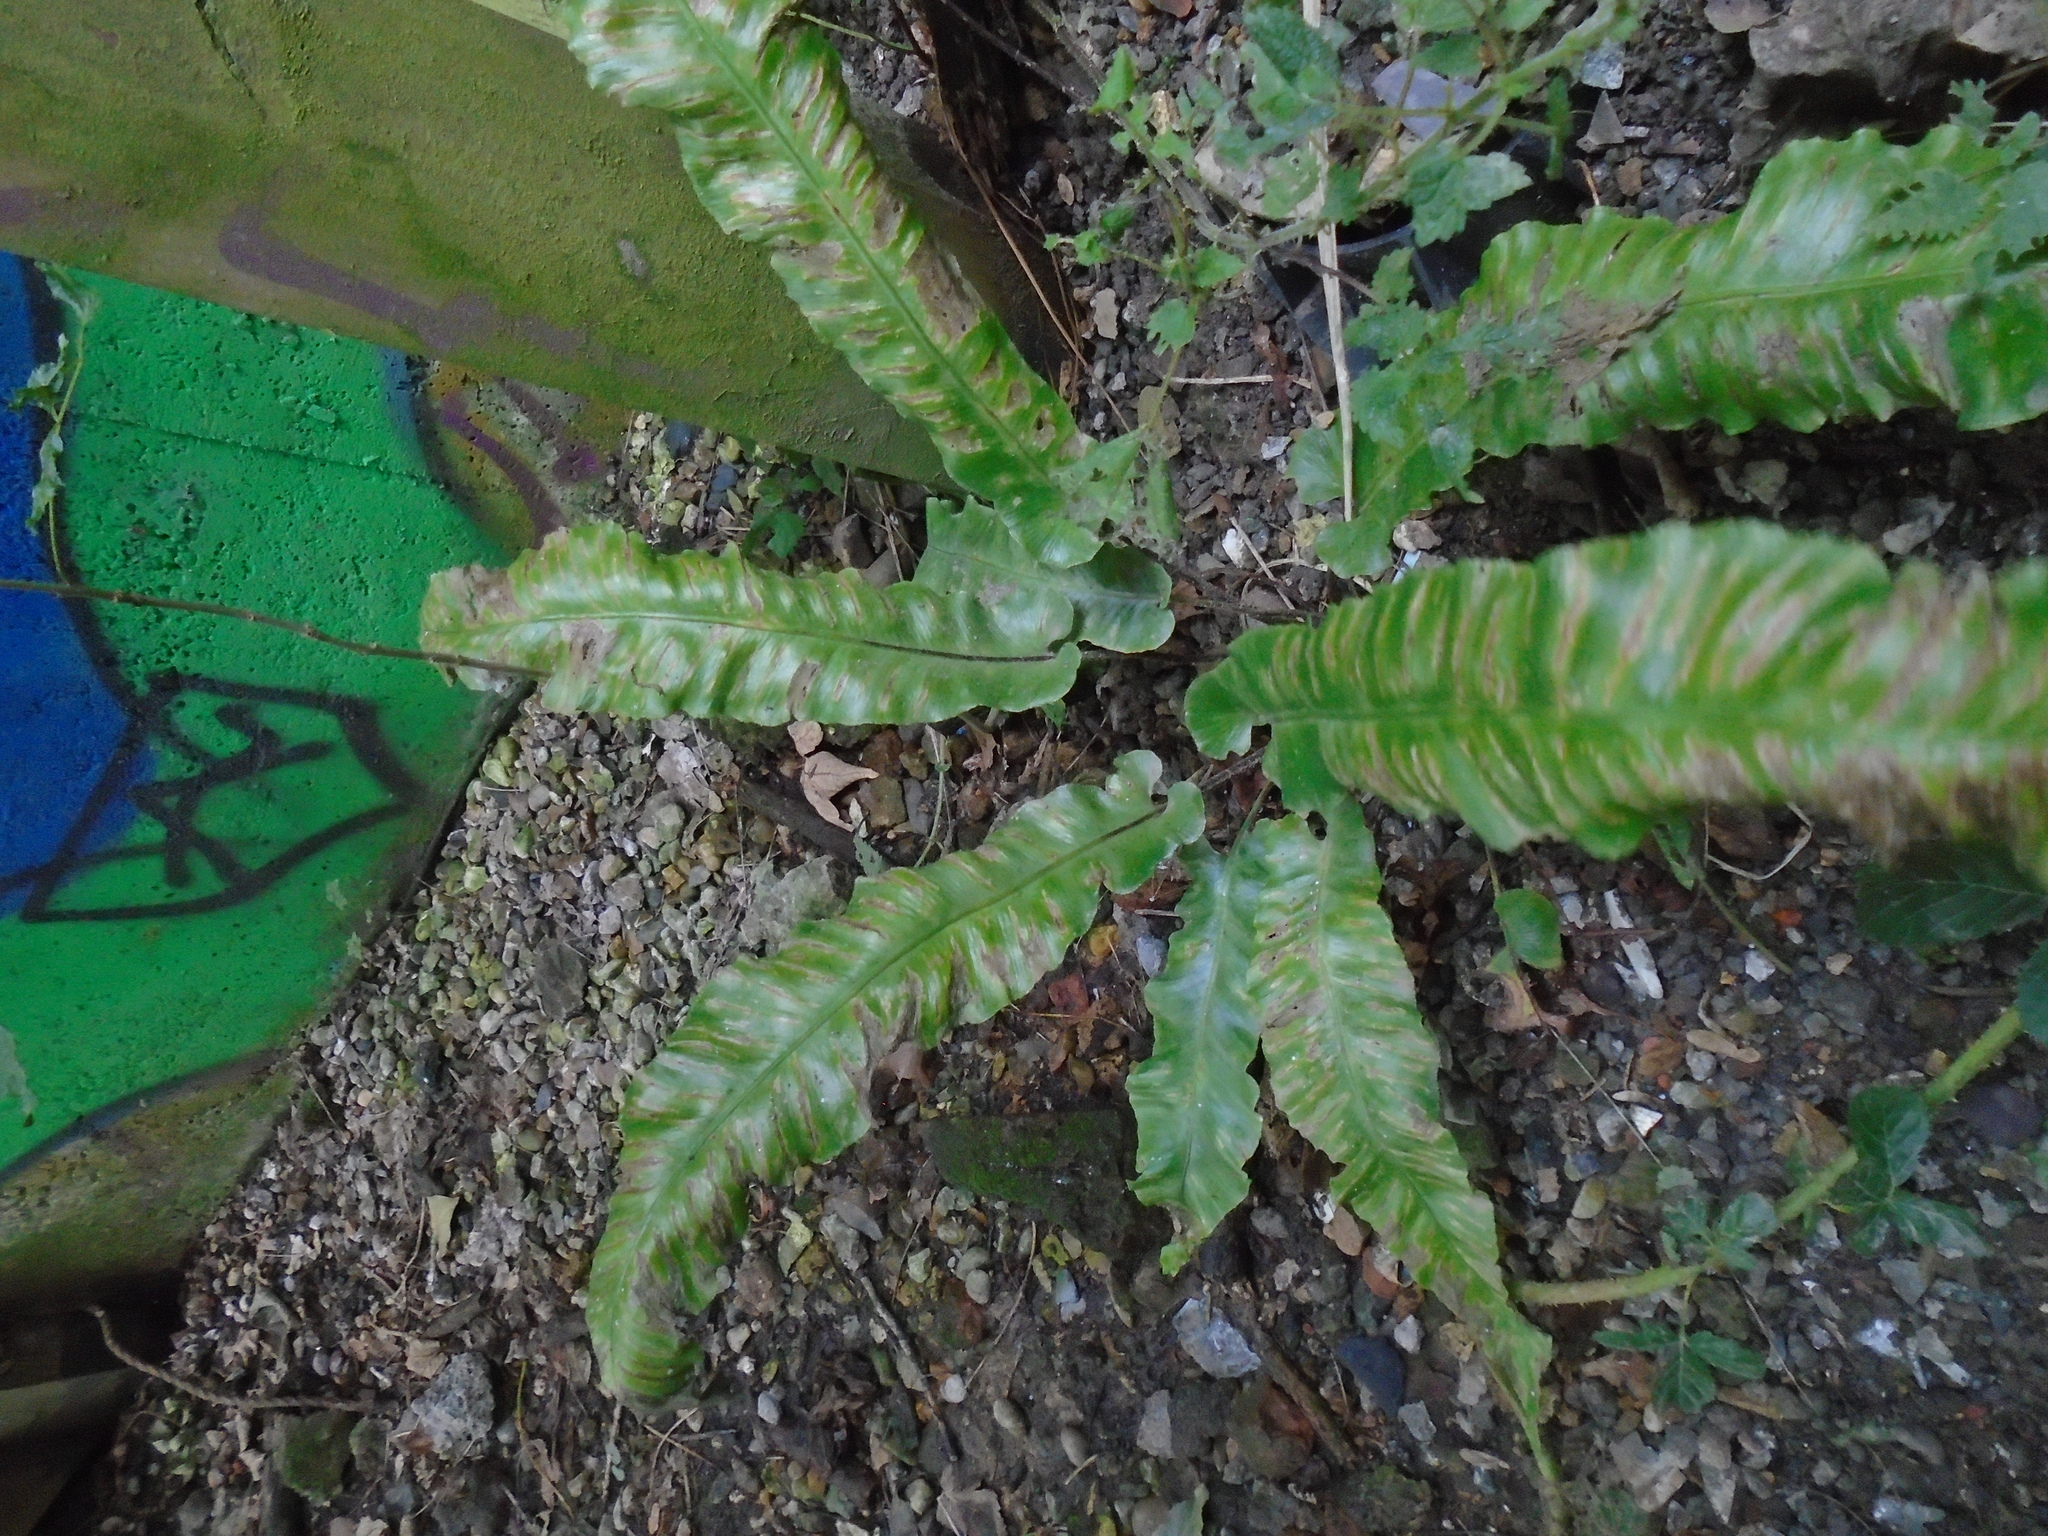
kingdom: Plantae
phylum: Tracheophyta
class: Polypodiopsida
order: Polypodiales
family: Aspleniaceae
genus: Asplenium
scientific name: Asplenium scolopendrium
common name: Hart's-tongue fern
